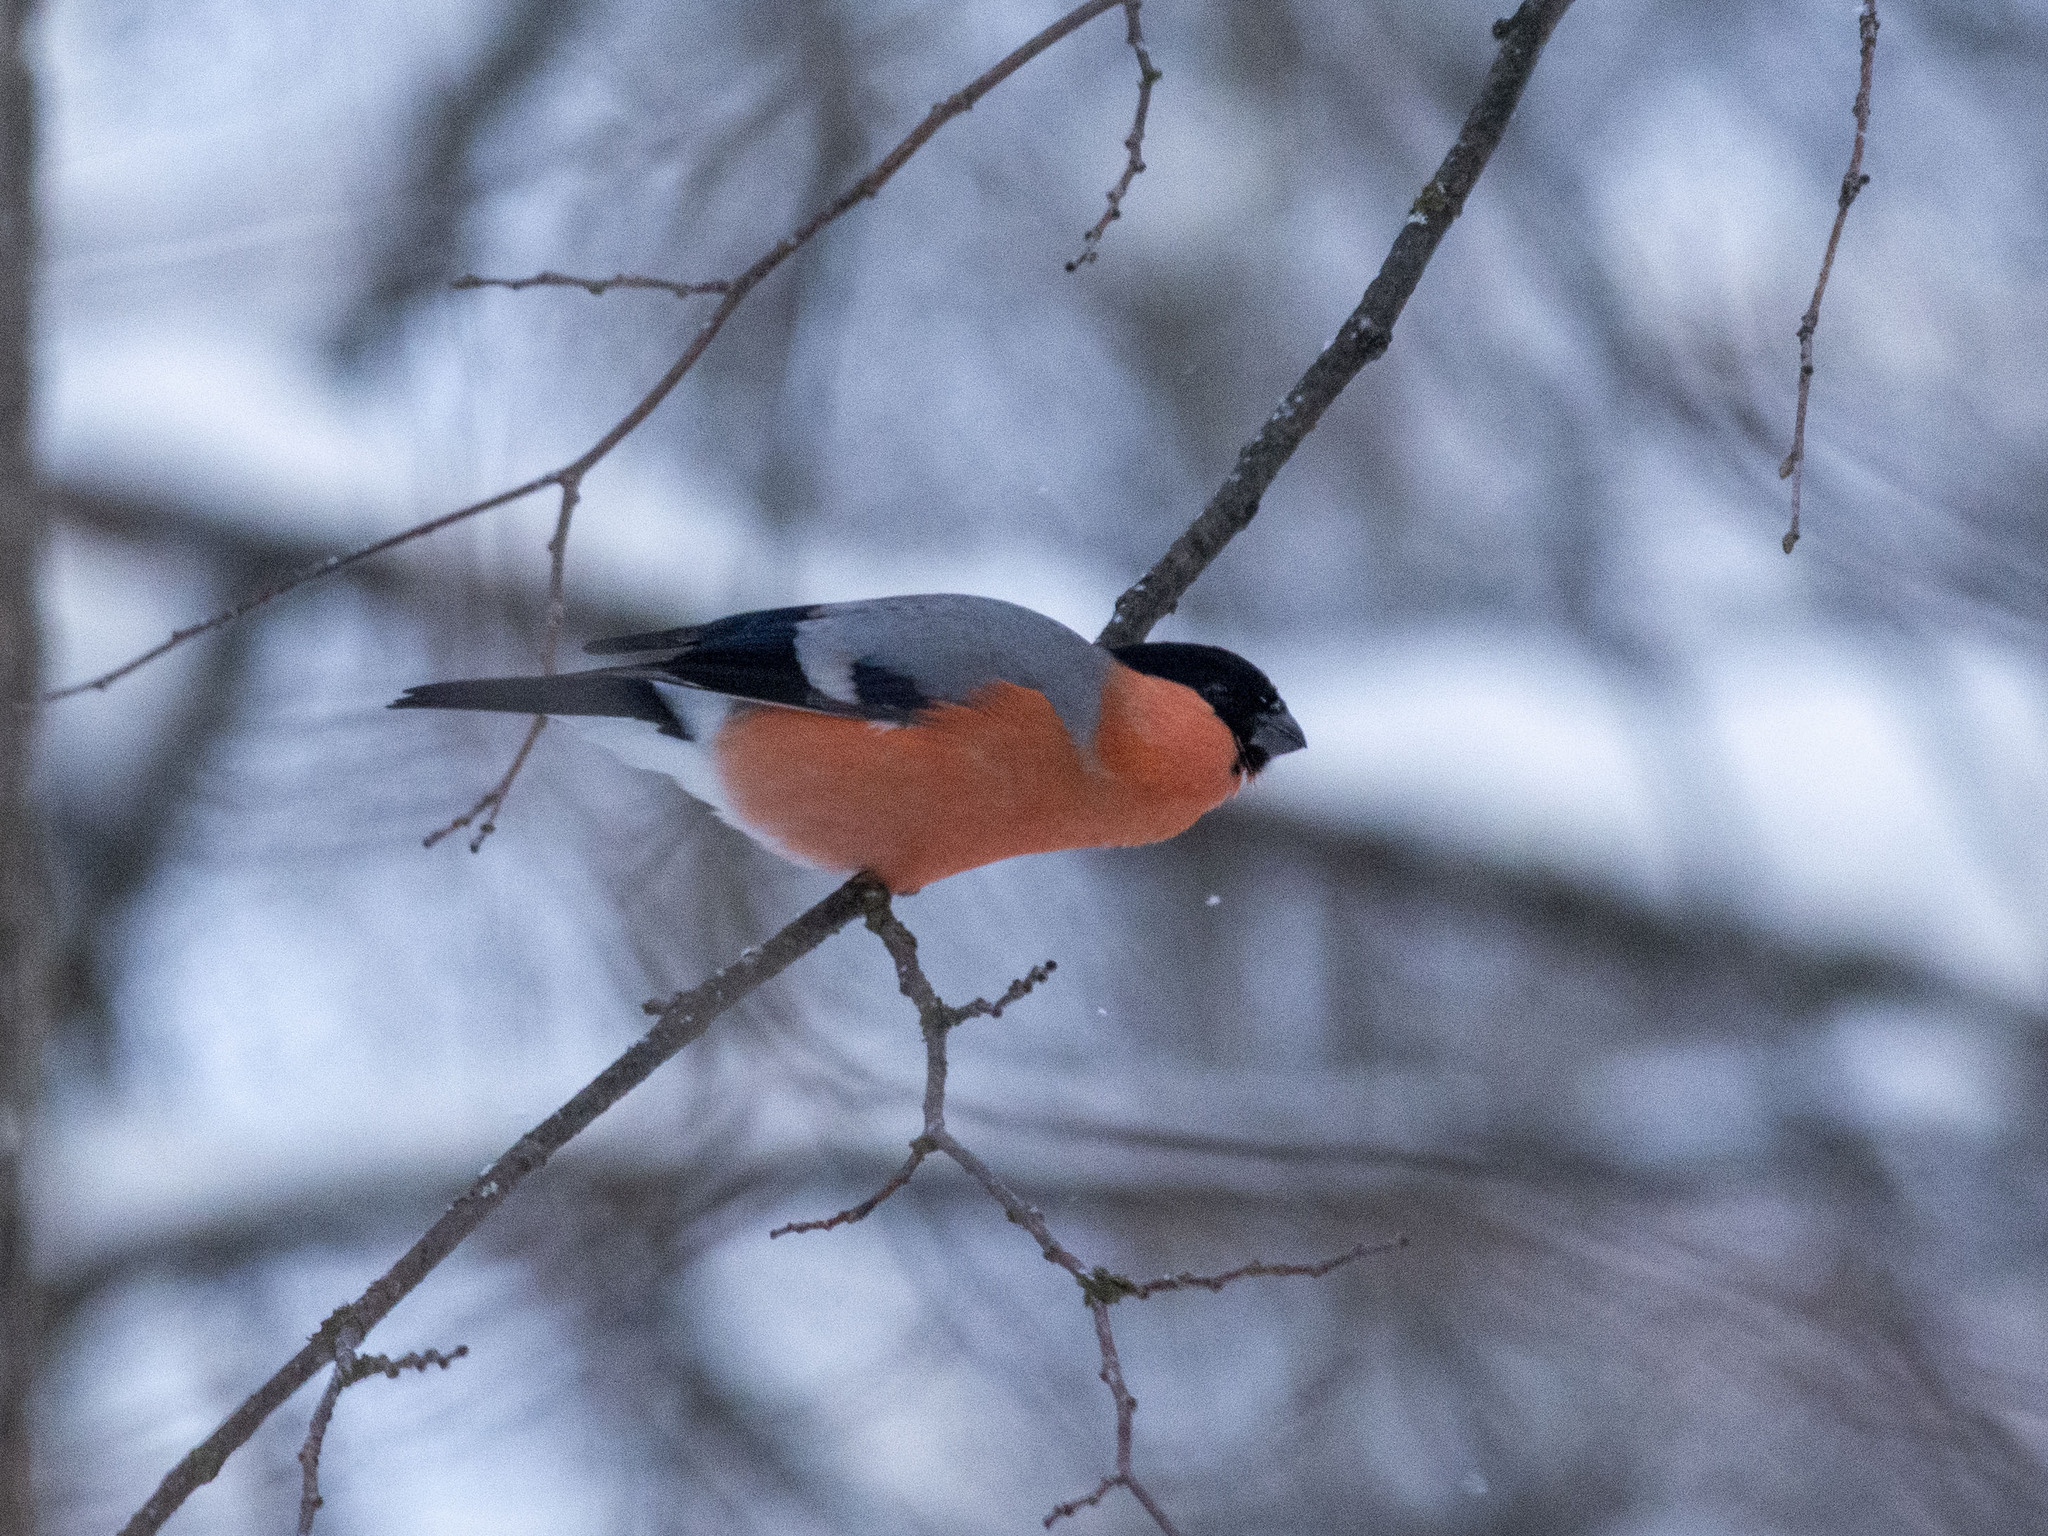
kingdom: Animalia
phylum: Chordata
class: Aves
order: Passeriformes
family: Fringillidae
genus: Pyrrhula
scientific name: Pyrrhula pyrrhula
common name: Eurasian bullfinch
